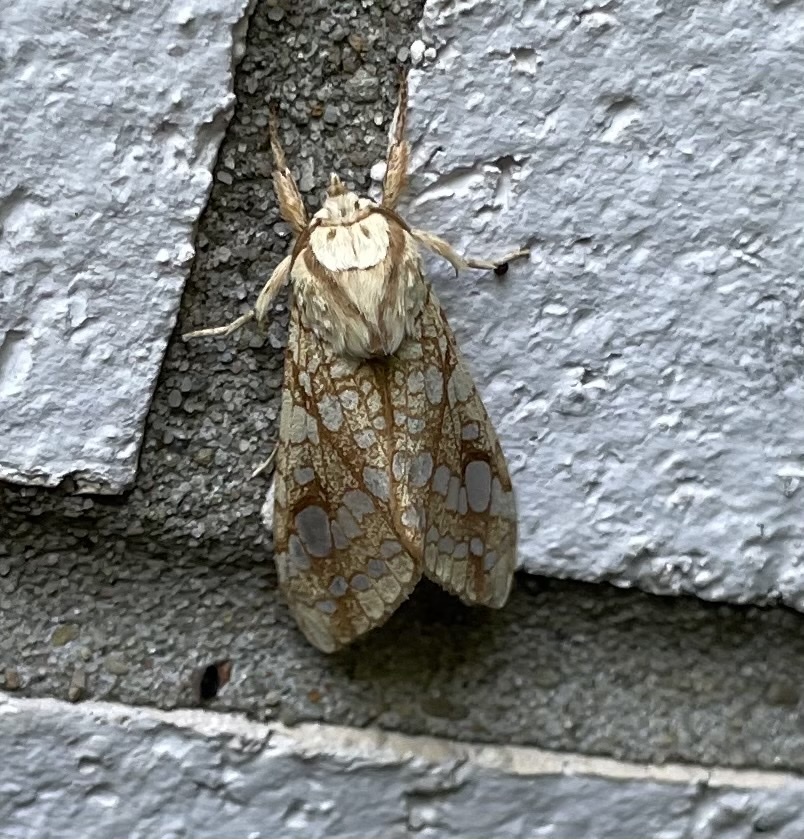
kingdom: Animalia
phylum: Arthropoda
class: Insecta
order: Lepidoptera
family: Erebidae
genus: Lophocampa
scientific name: Lophocampa caryae
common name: Hickory tussock moth
